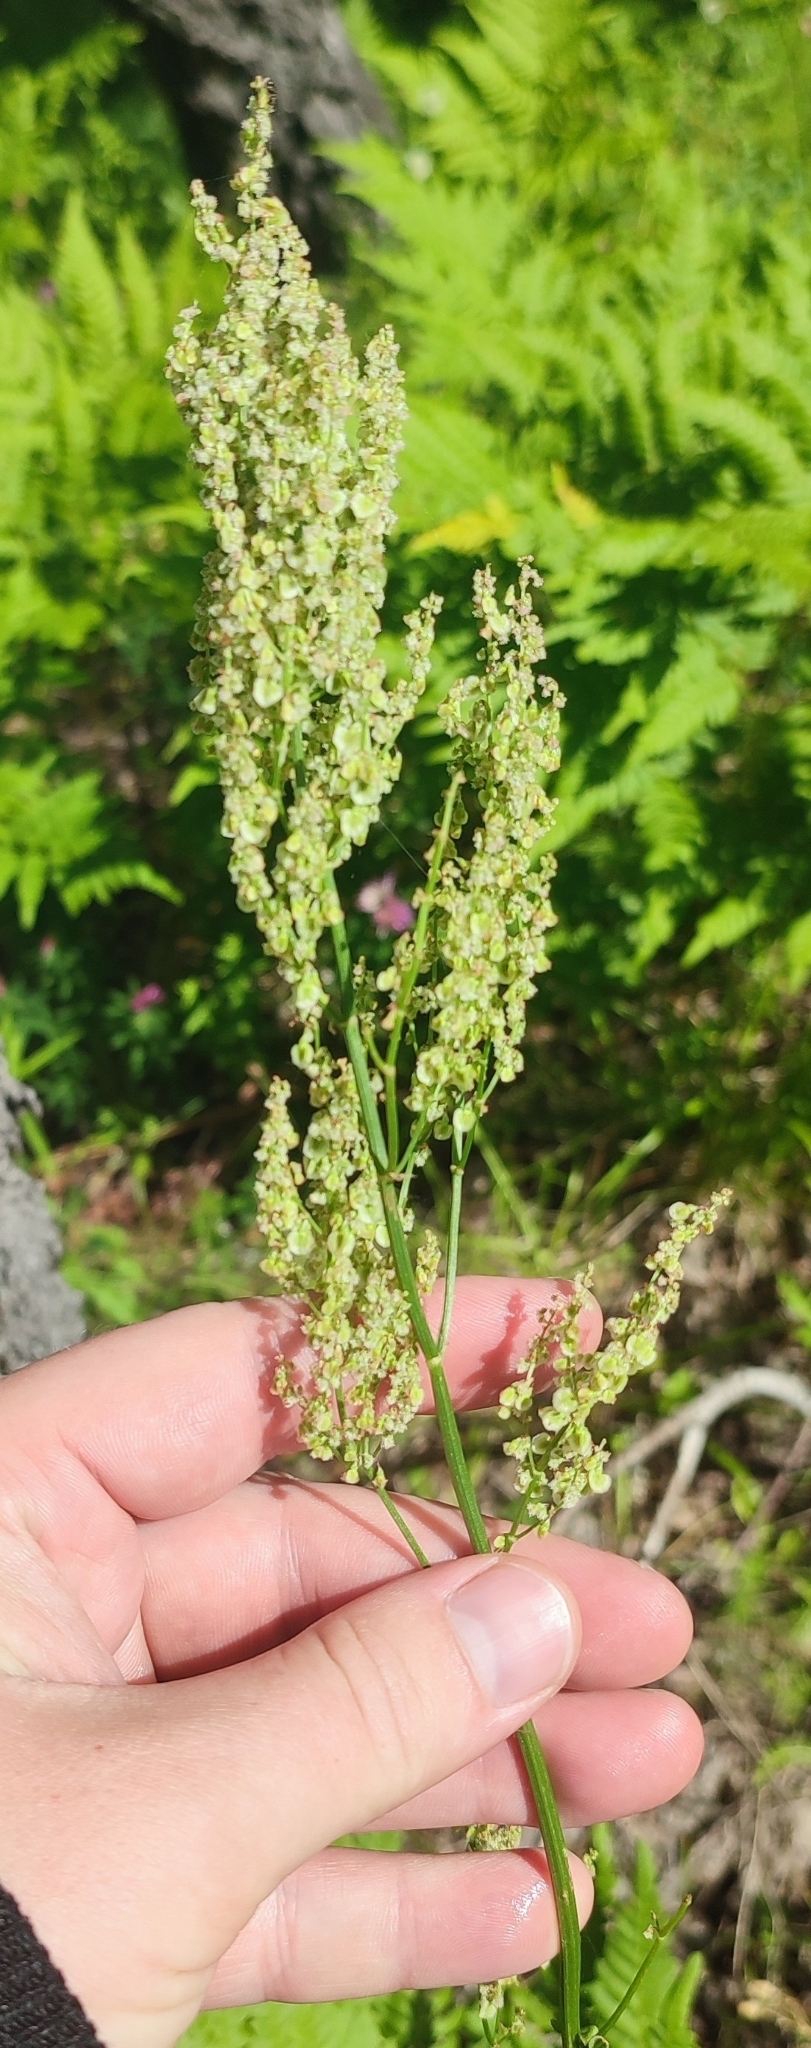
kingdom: Plantae
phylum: Tracheophyta
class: Magnoliopsida
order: Caryophyllales
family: Polygonaceae
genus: Rumex
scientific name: Rumex thyrsiflorus
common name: Garden sorrel
